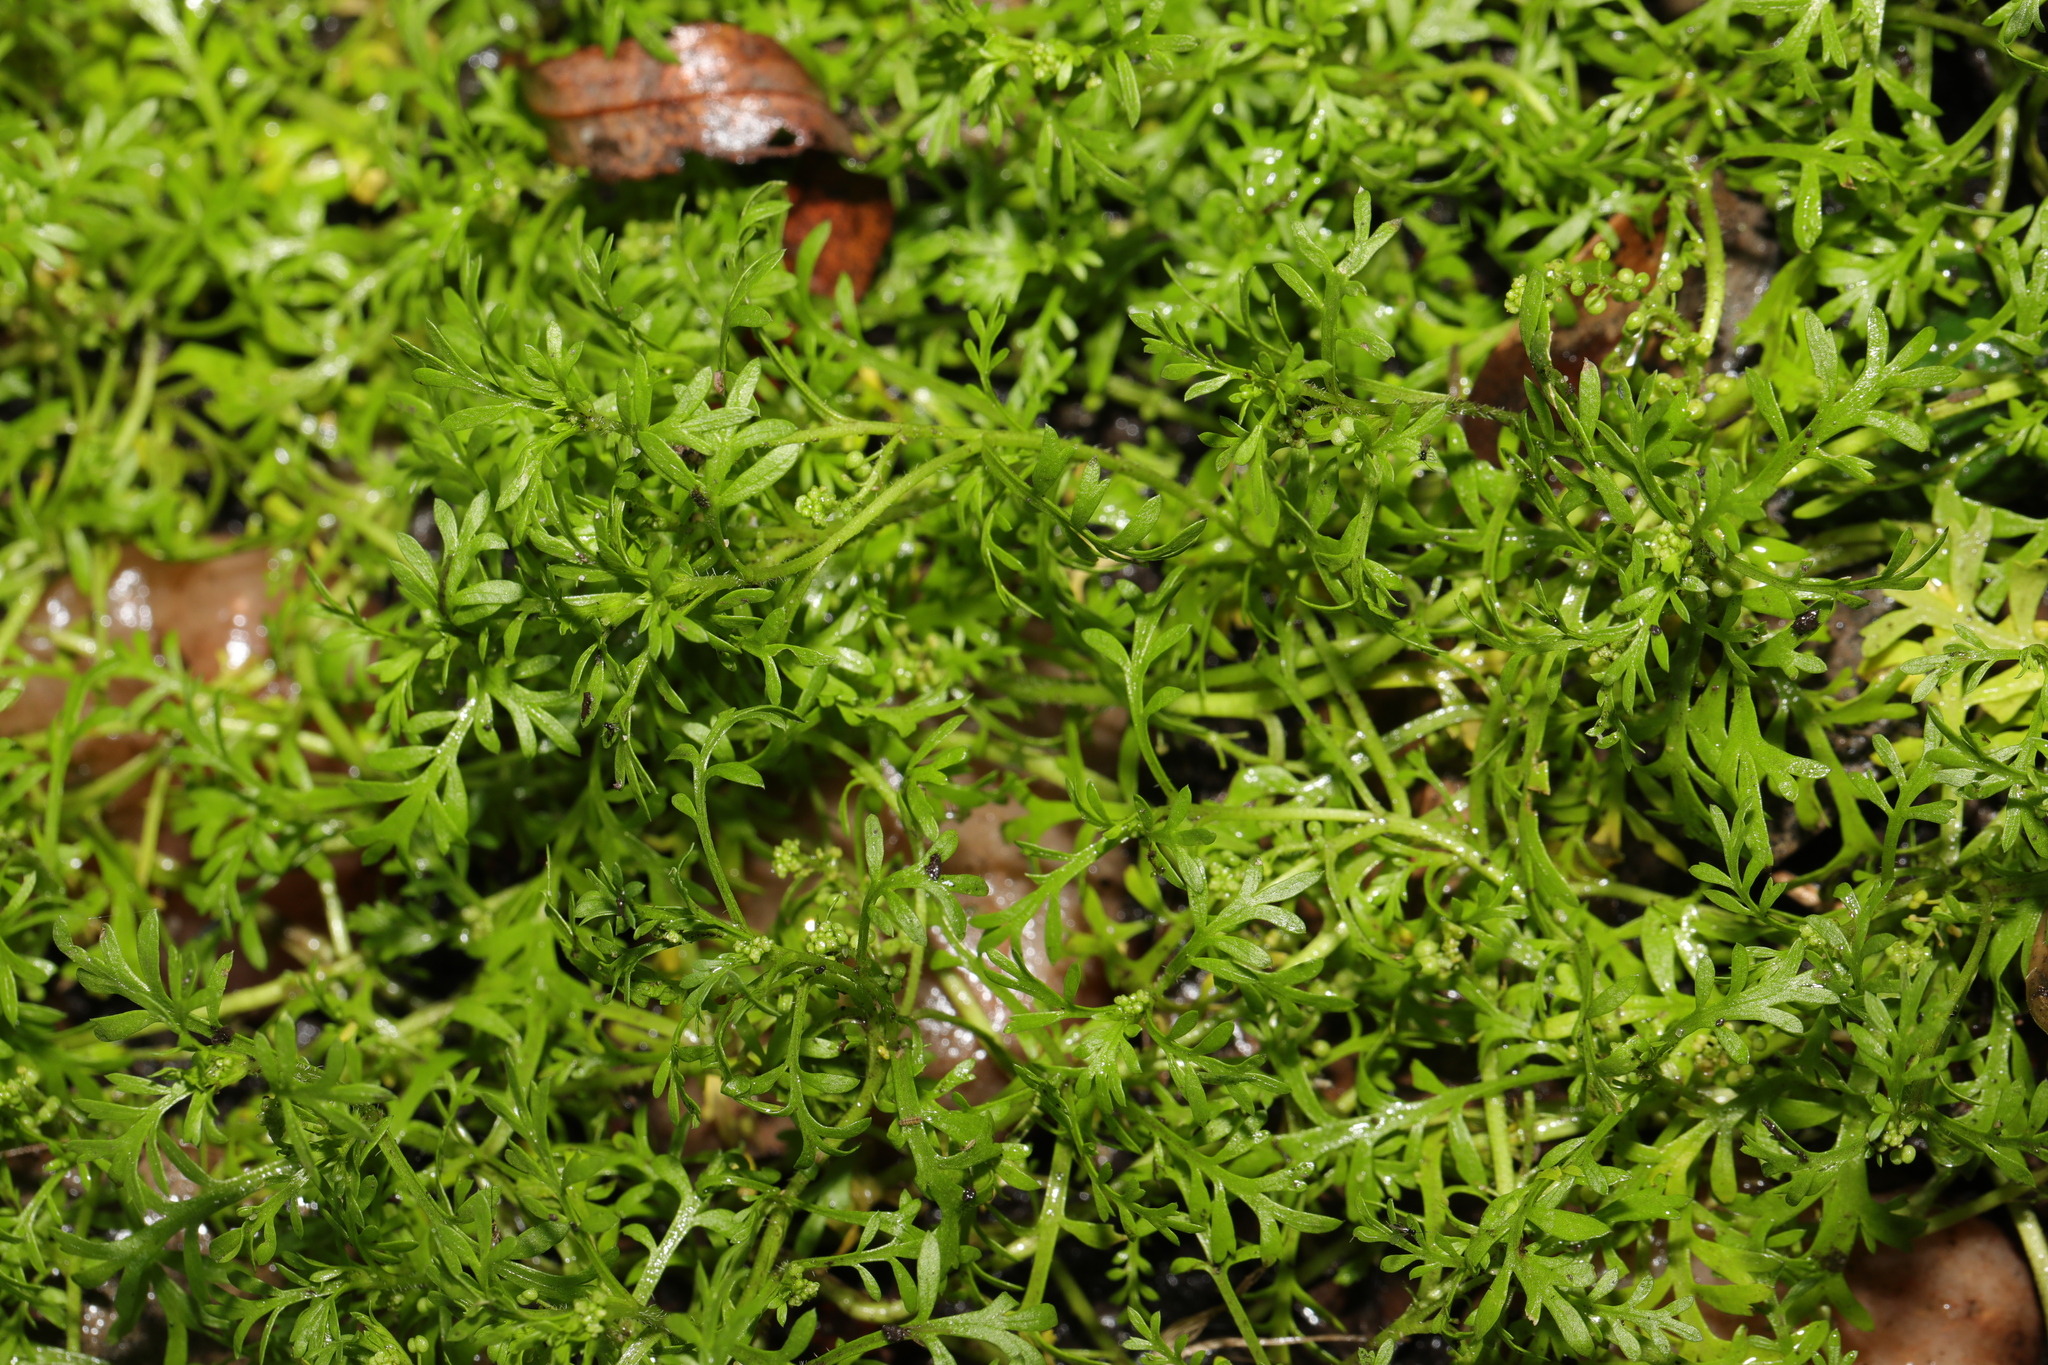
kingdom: Plantae
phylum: Tracheophyta
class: Magnoliopsida
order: Brassicales
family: Brassicaceae
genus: Lepidium
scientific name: Lepidium didymum
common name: Lesser swinecress
